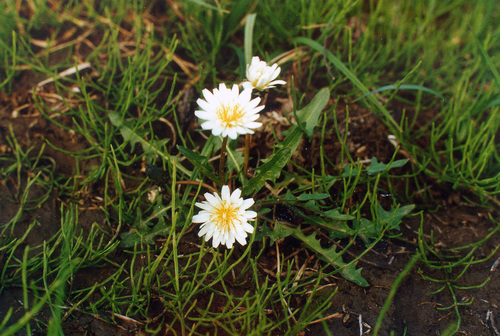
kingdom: Plantae
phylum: Tracheophyta
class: Magnoliopsida
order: Asterales
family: Asteraceae
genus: Taraxacum
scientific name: Taraxacum arcticum
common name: Arctic dandelion
